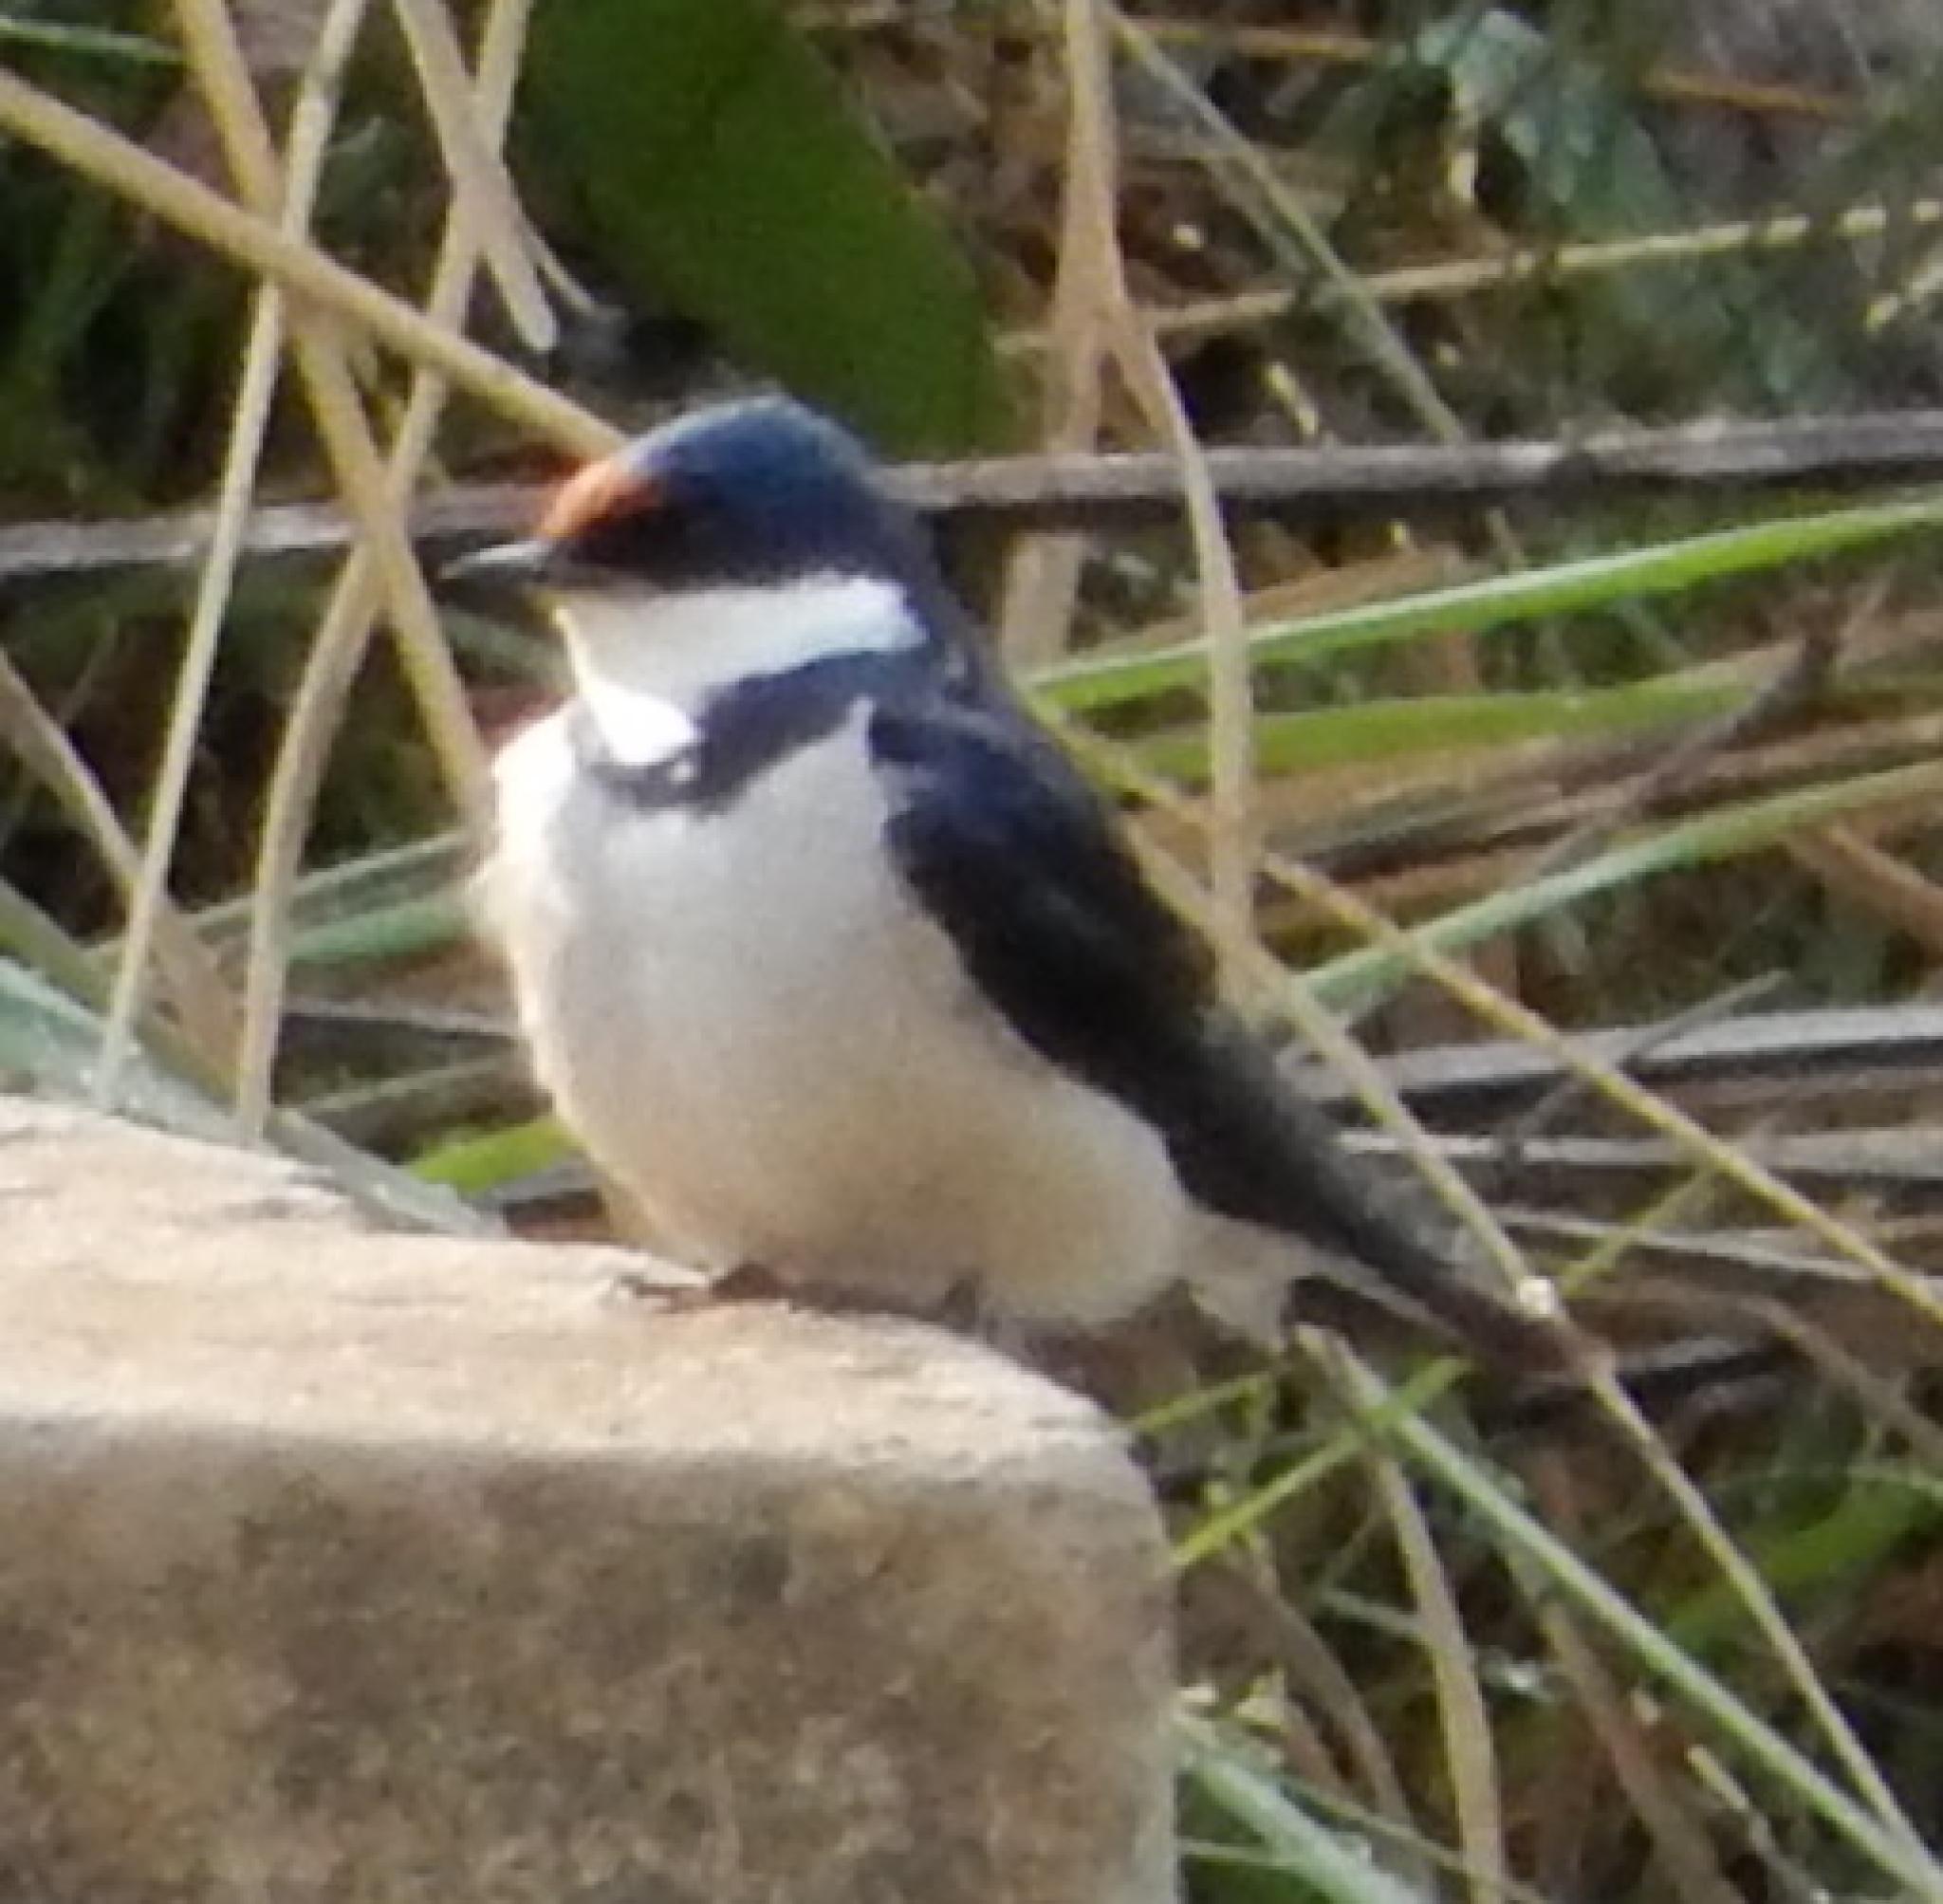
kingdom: Animalia
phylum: Chordata
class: Aves
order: Passeriformes
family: Hirundinidae
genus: Hirundo
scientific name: Hirundo albigularis
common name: White-throated swallow
